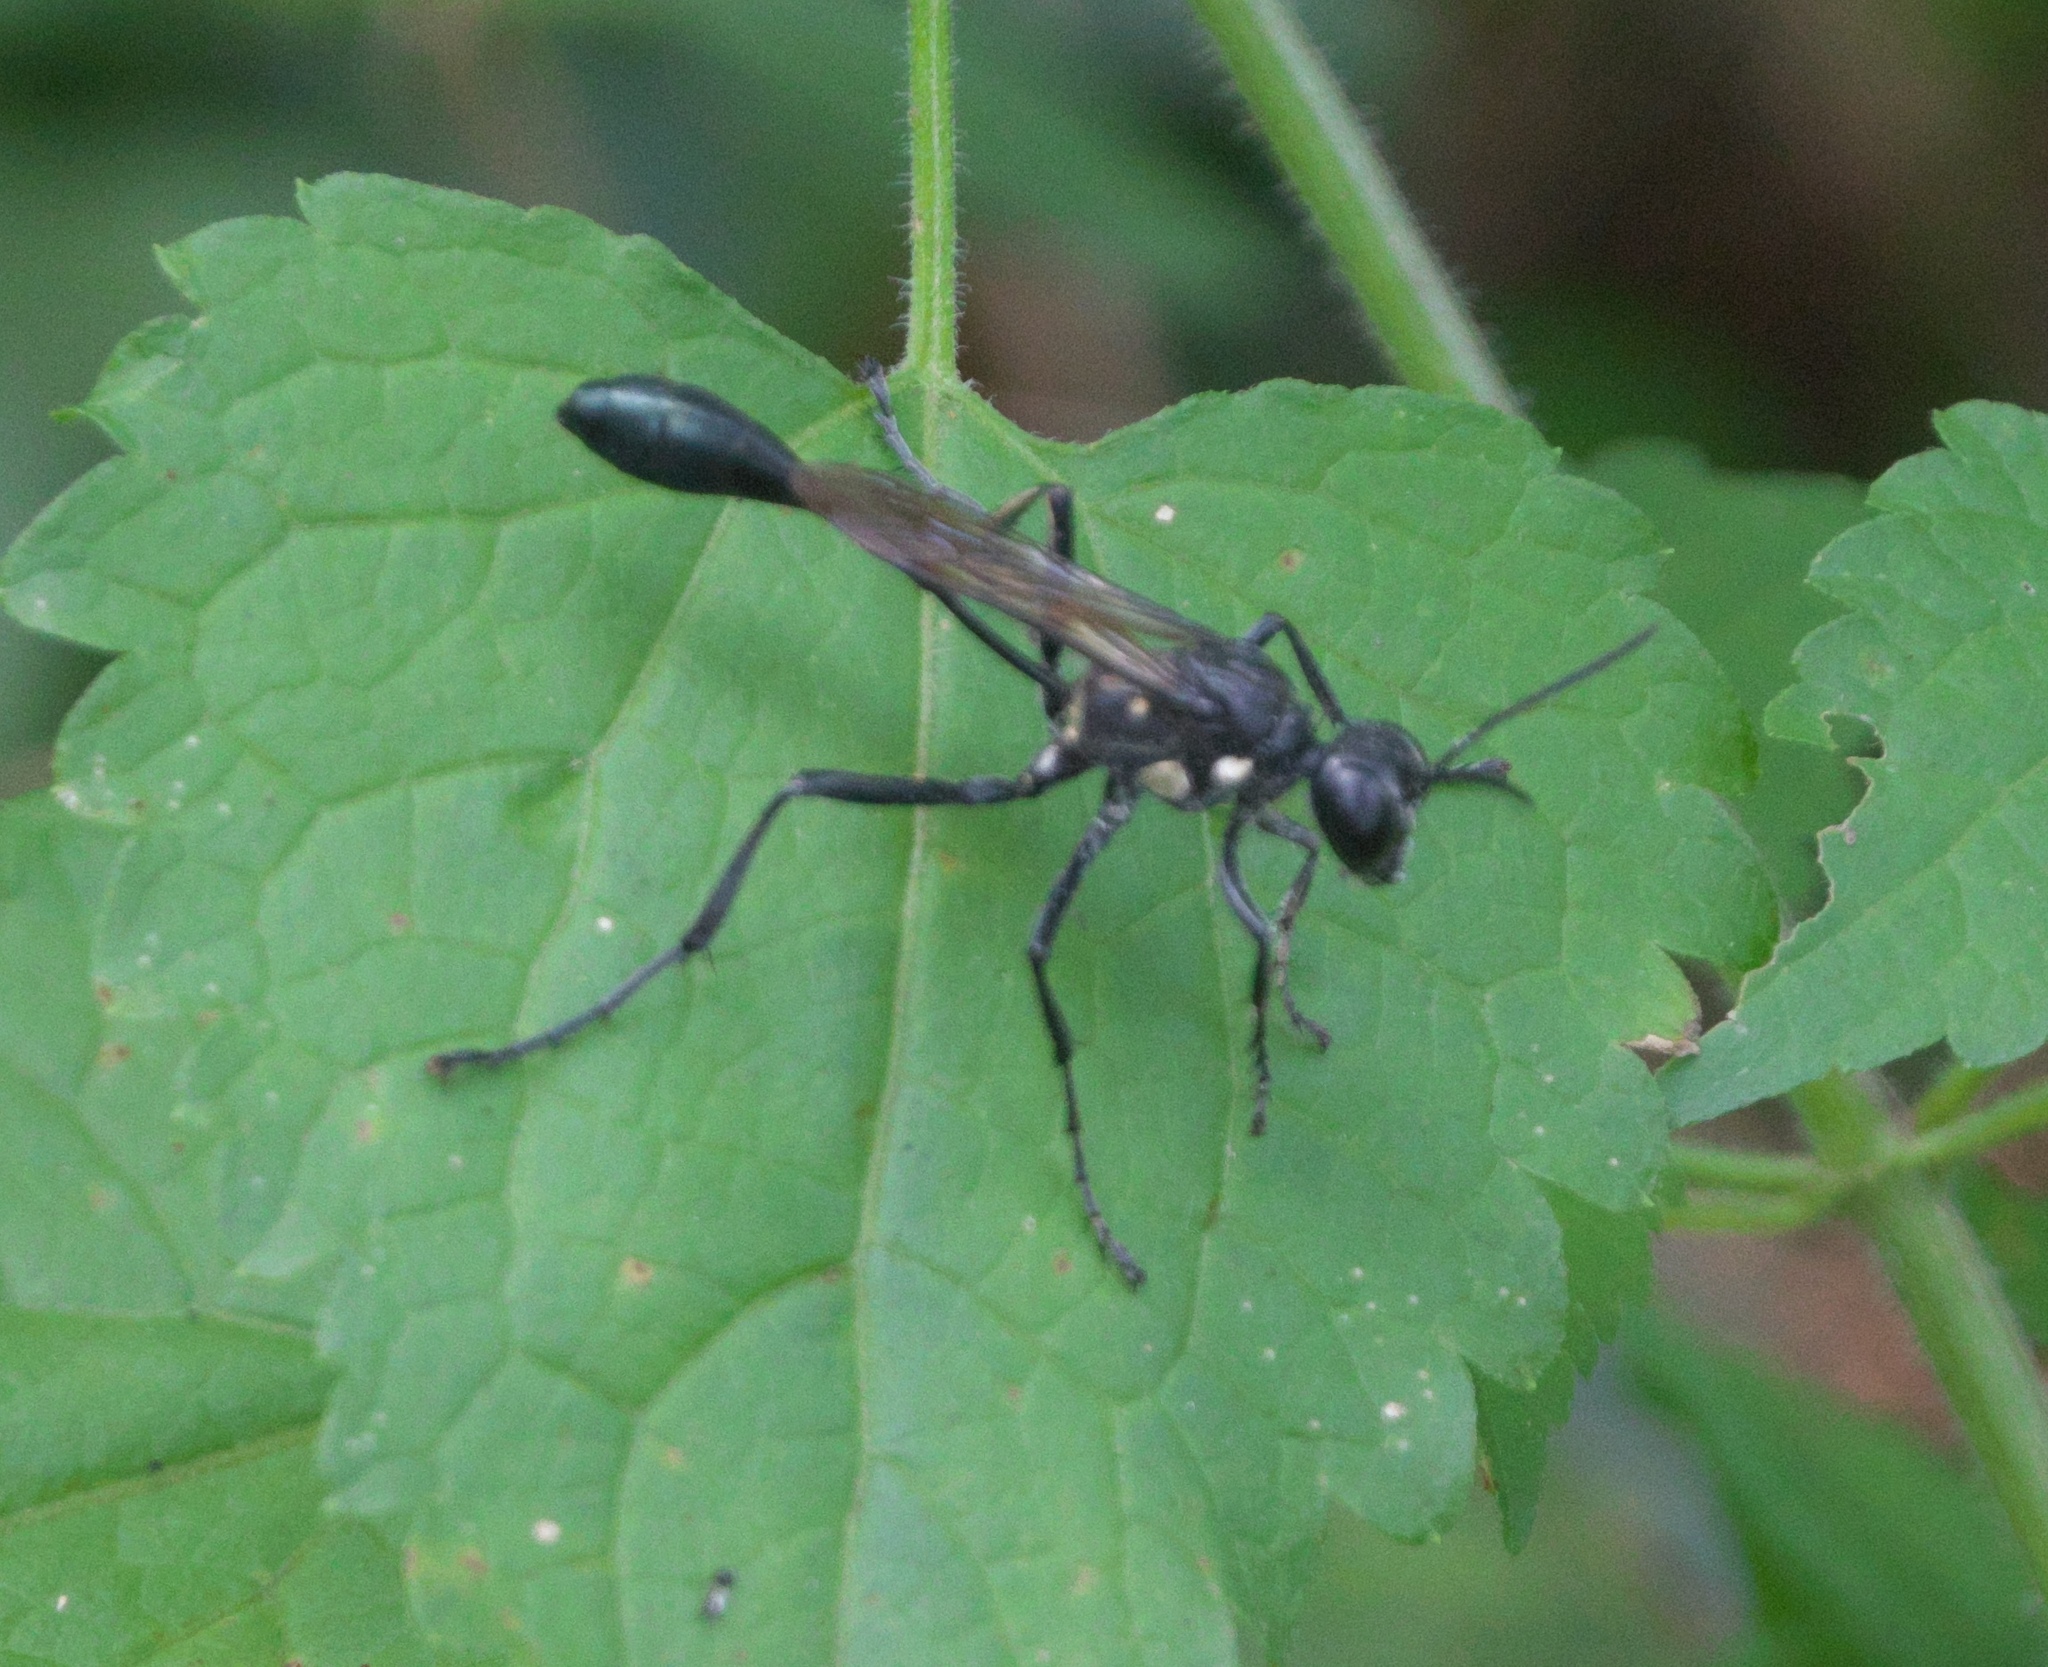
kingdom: Animalia
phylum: Arthropoda
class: Insecta
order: Hymenoptera
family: Sphecidae
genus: Eremnophila
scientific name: Eremnophila aureonotata
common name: Gold-marked thread-waisted wasp
